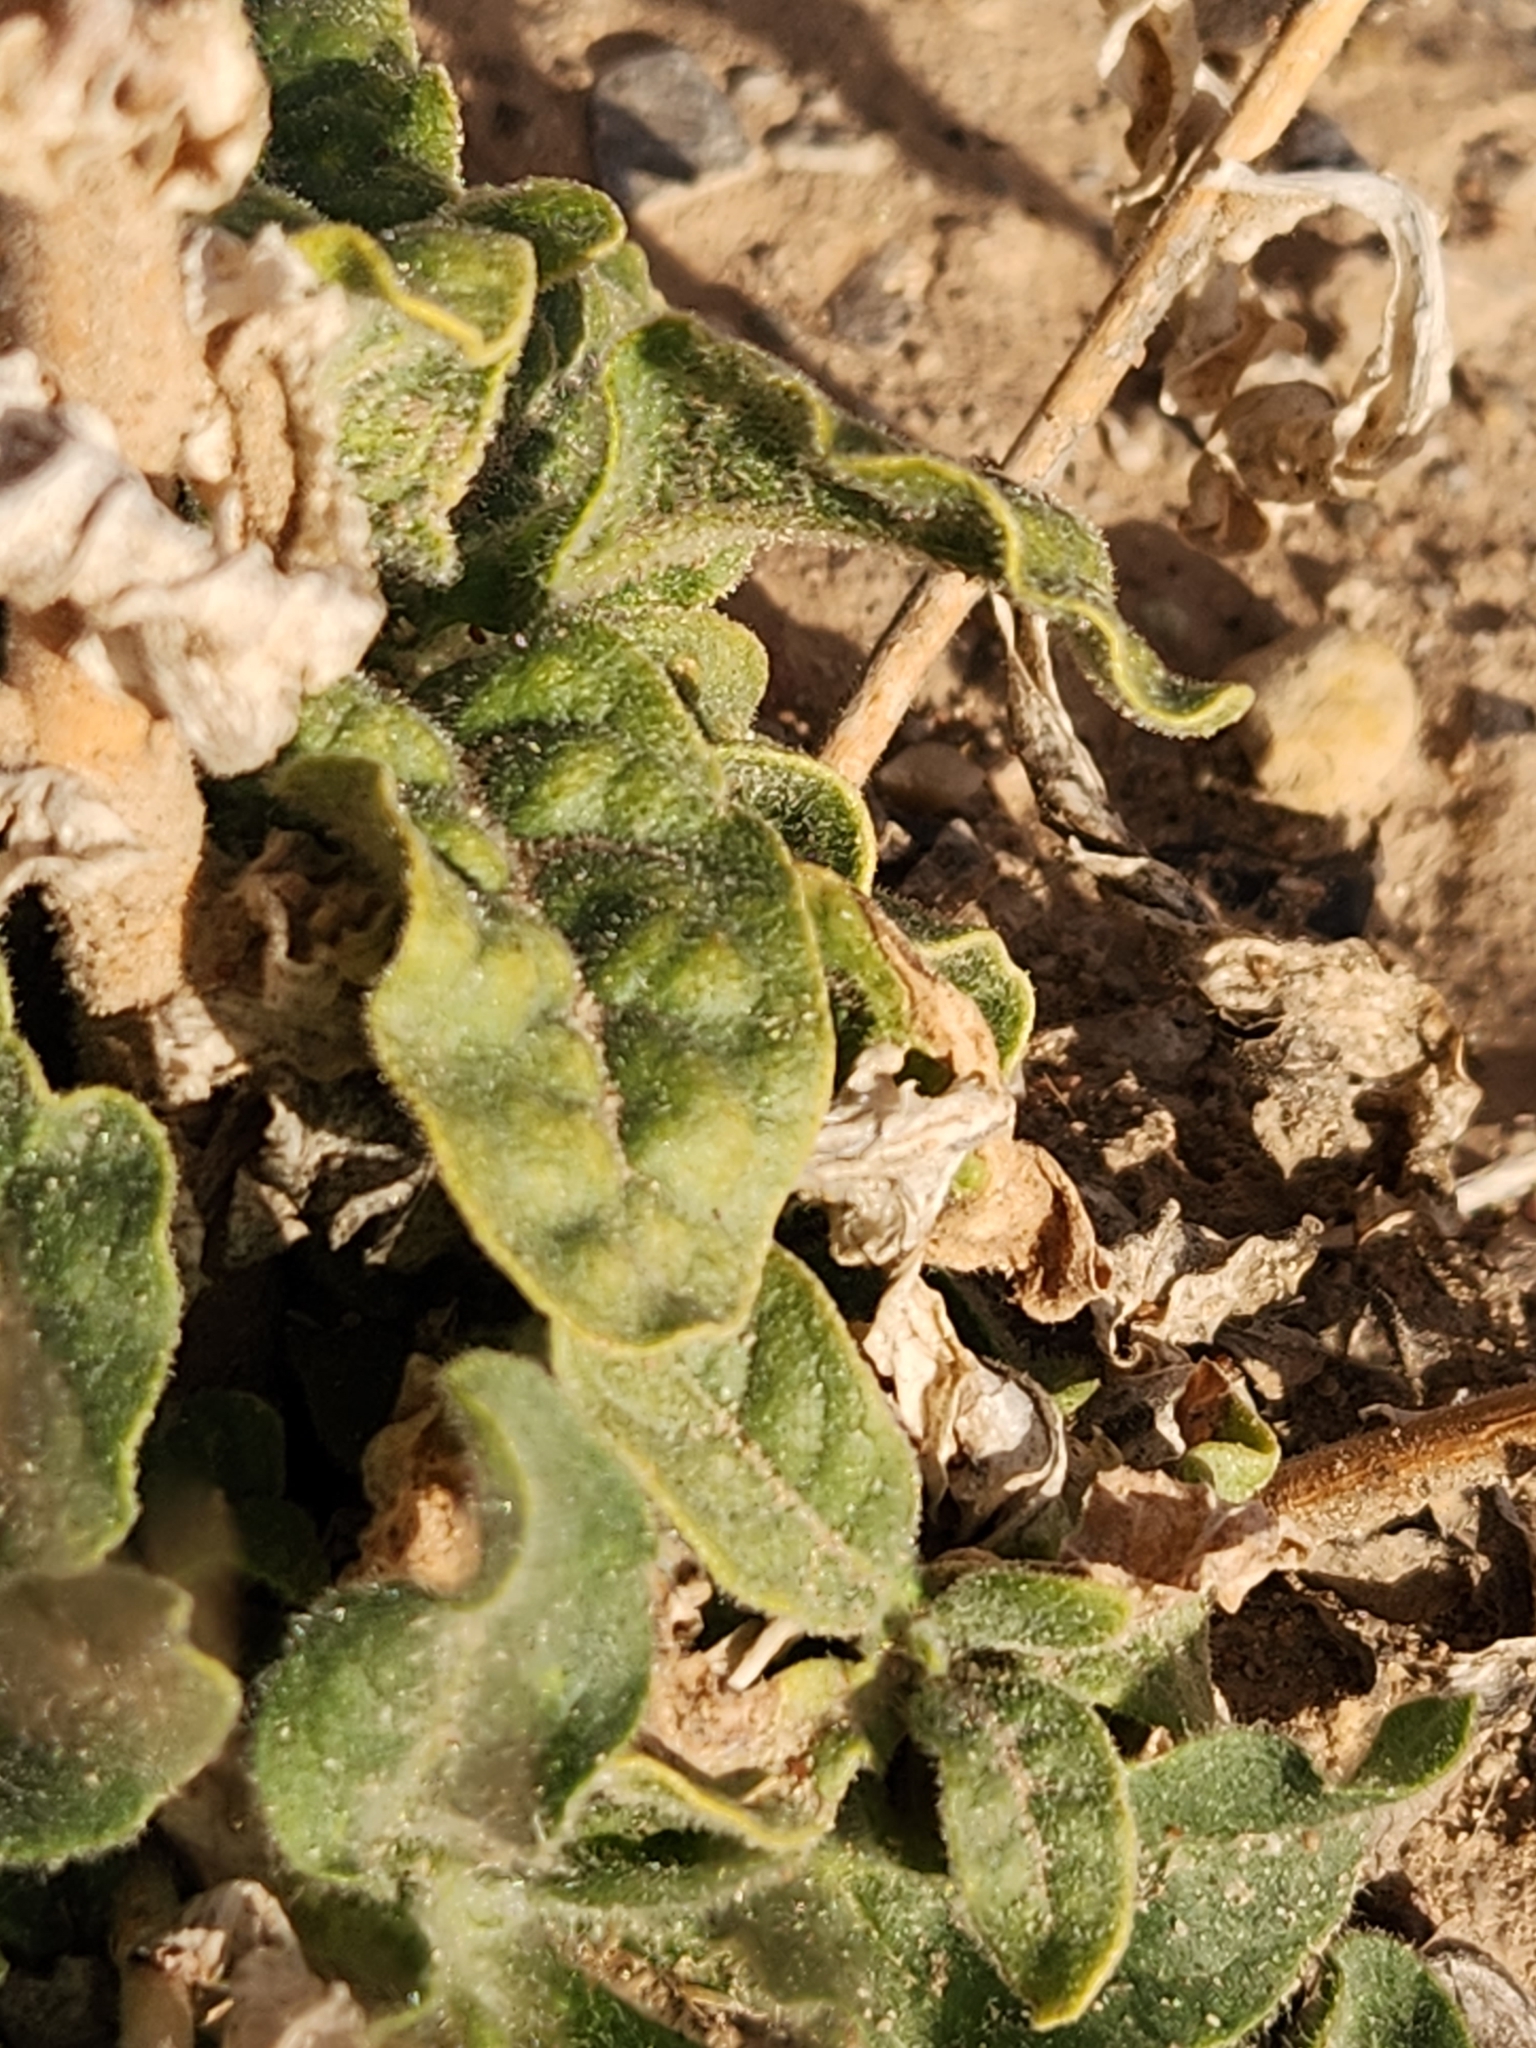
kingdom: Plantae
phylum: Tracheophyta
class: Magnoliopsida
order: Solanales
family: Solanaceae
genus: Nicotiana
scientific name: Nicotiana obtusifolia
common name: Desert tobacco
